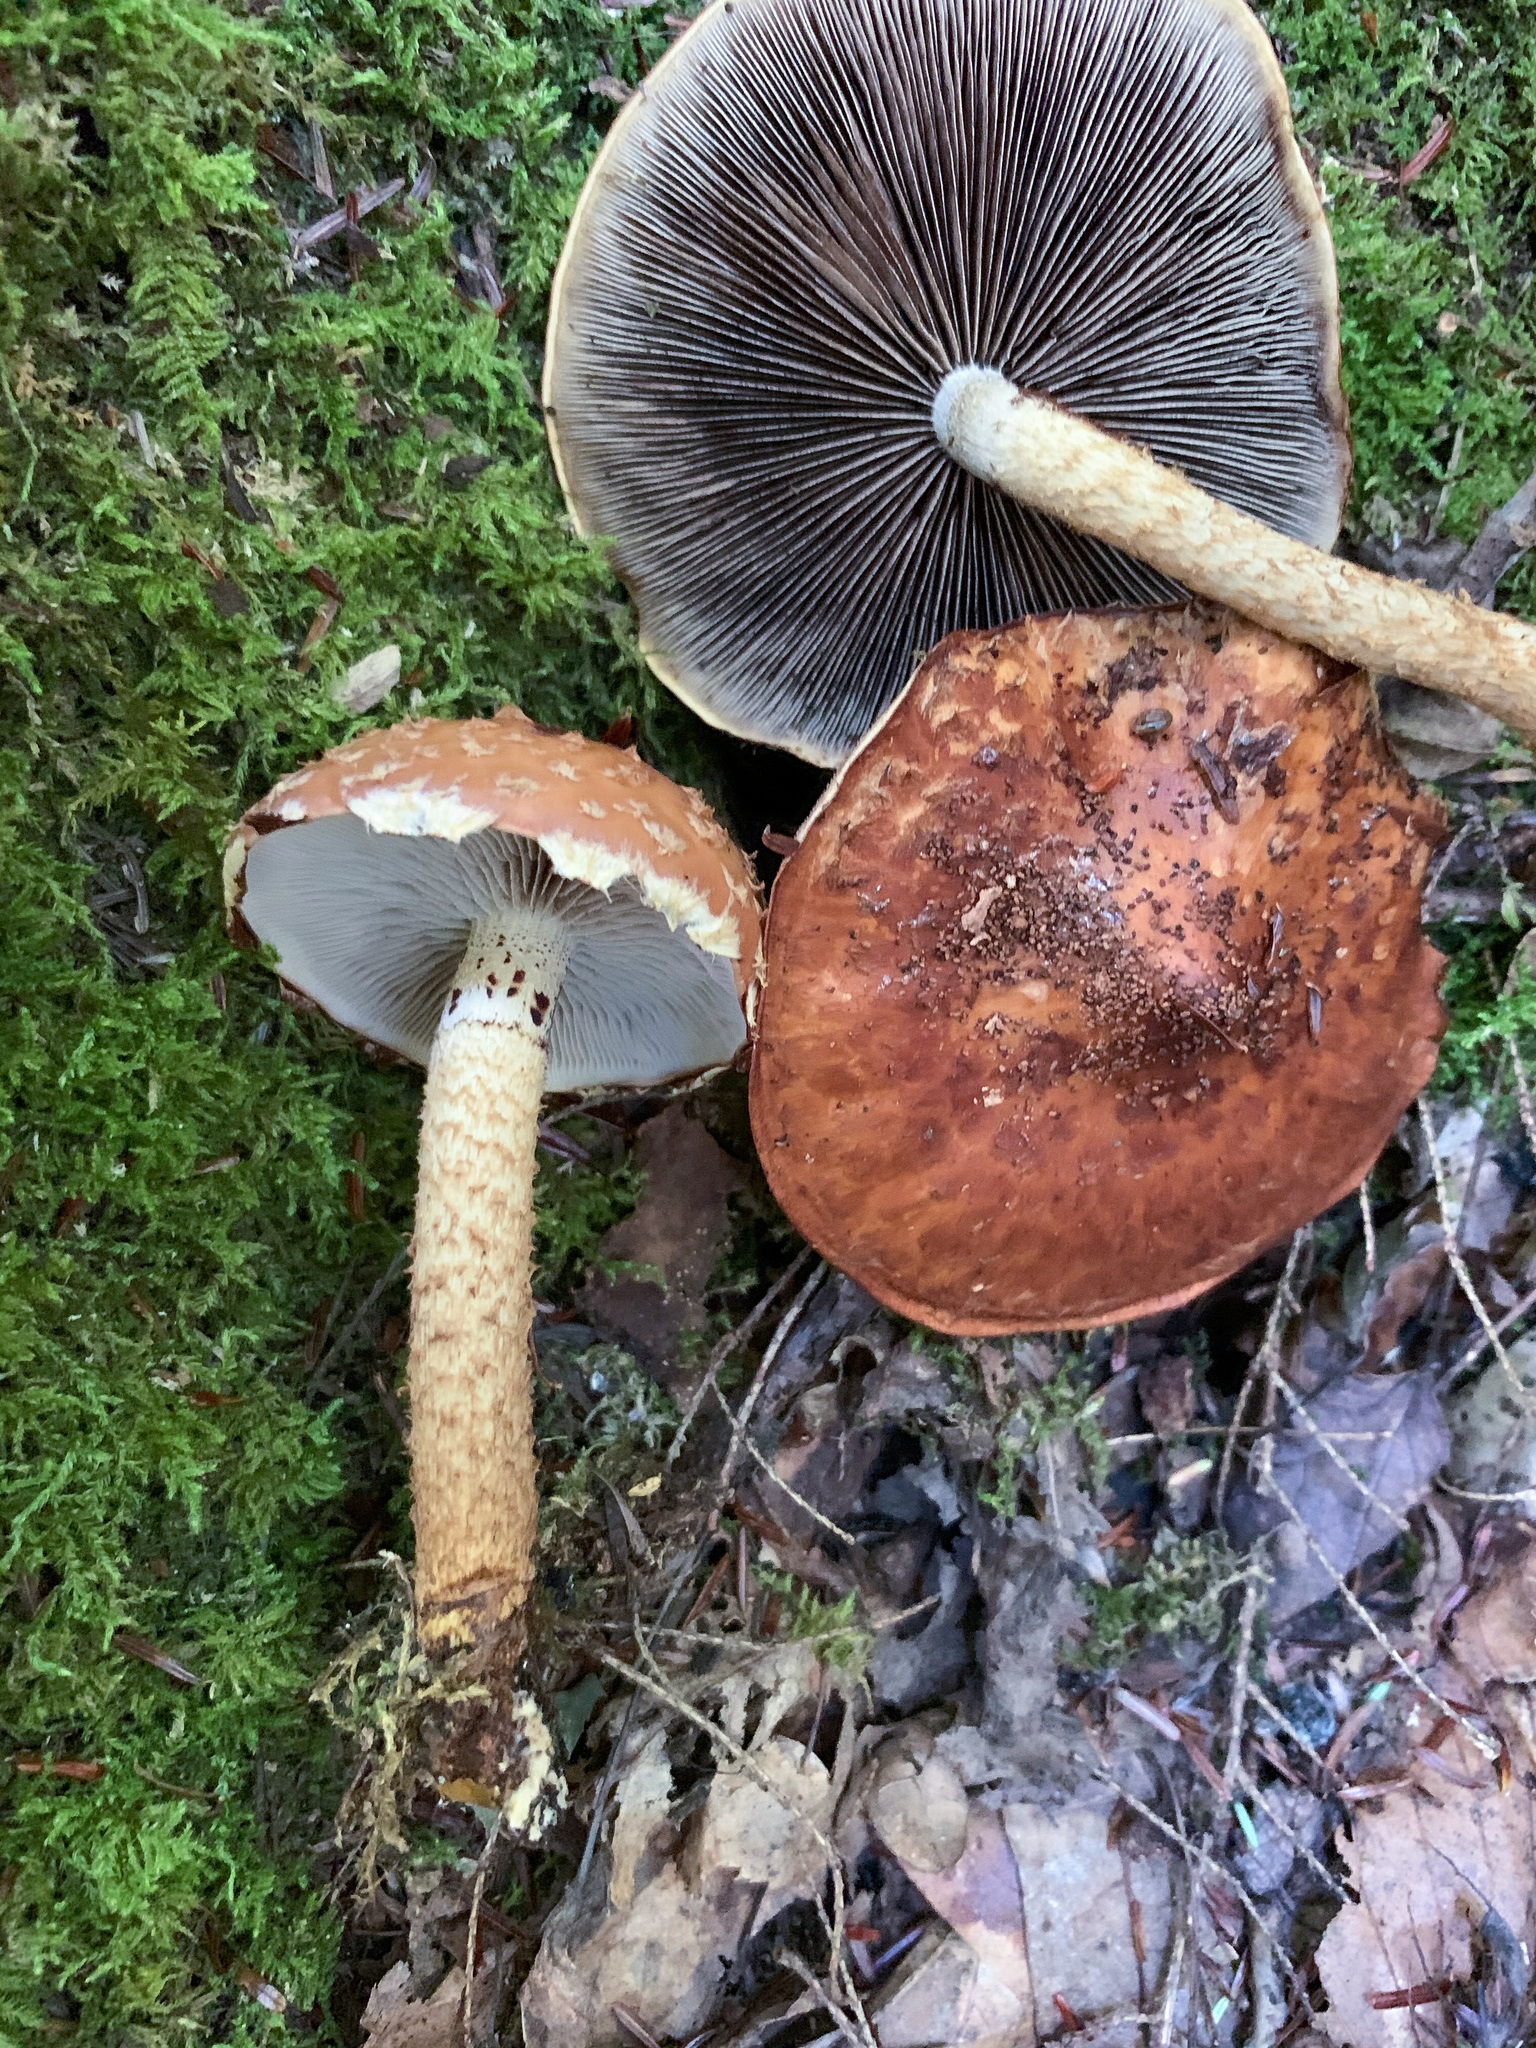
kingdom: Fungi
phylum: Basidiomycota
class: Agaricomycetes
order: Agaricales
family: Strophariaceae
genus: Leratiomyces
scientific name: Leratiomyces squamosus
